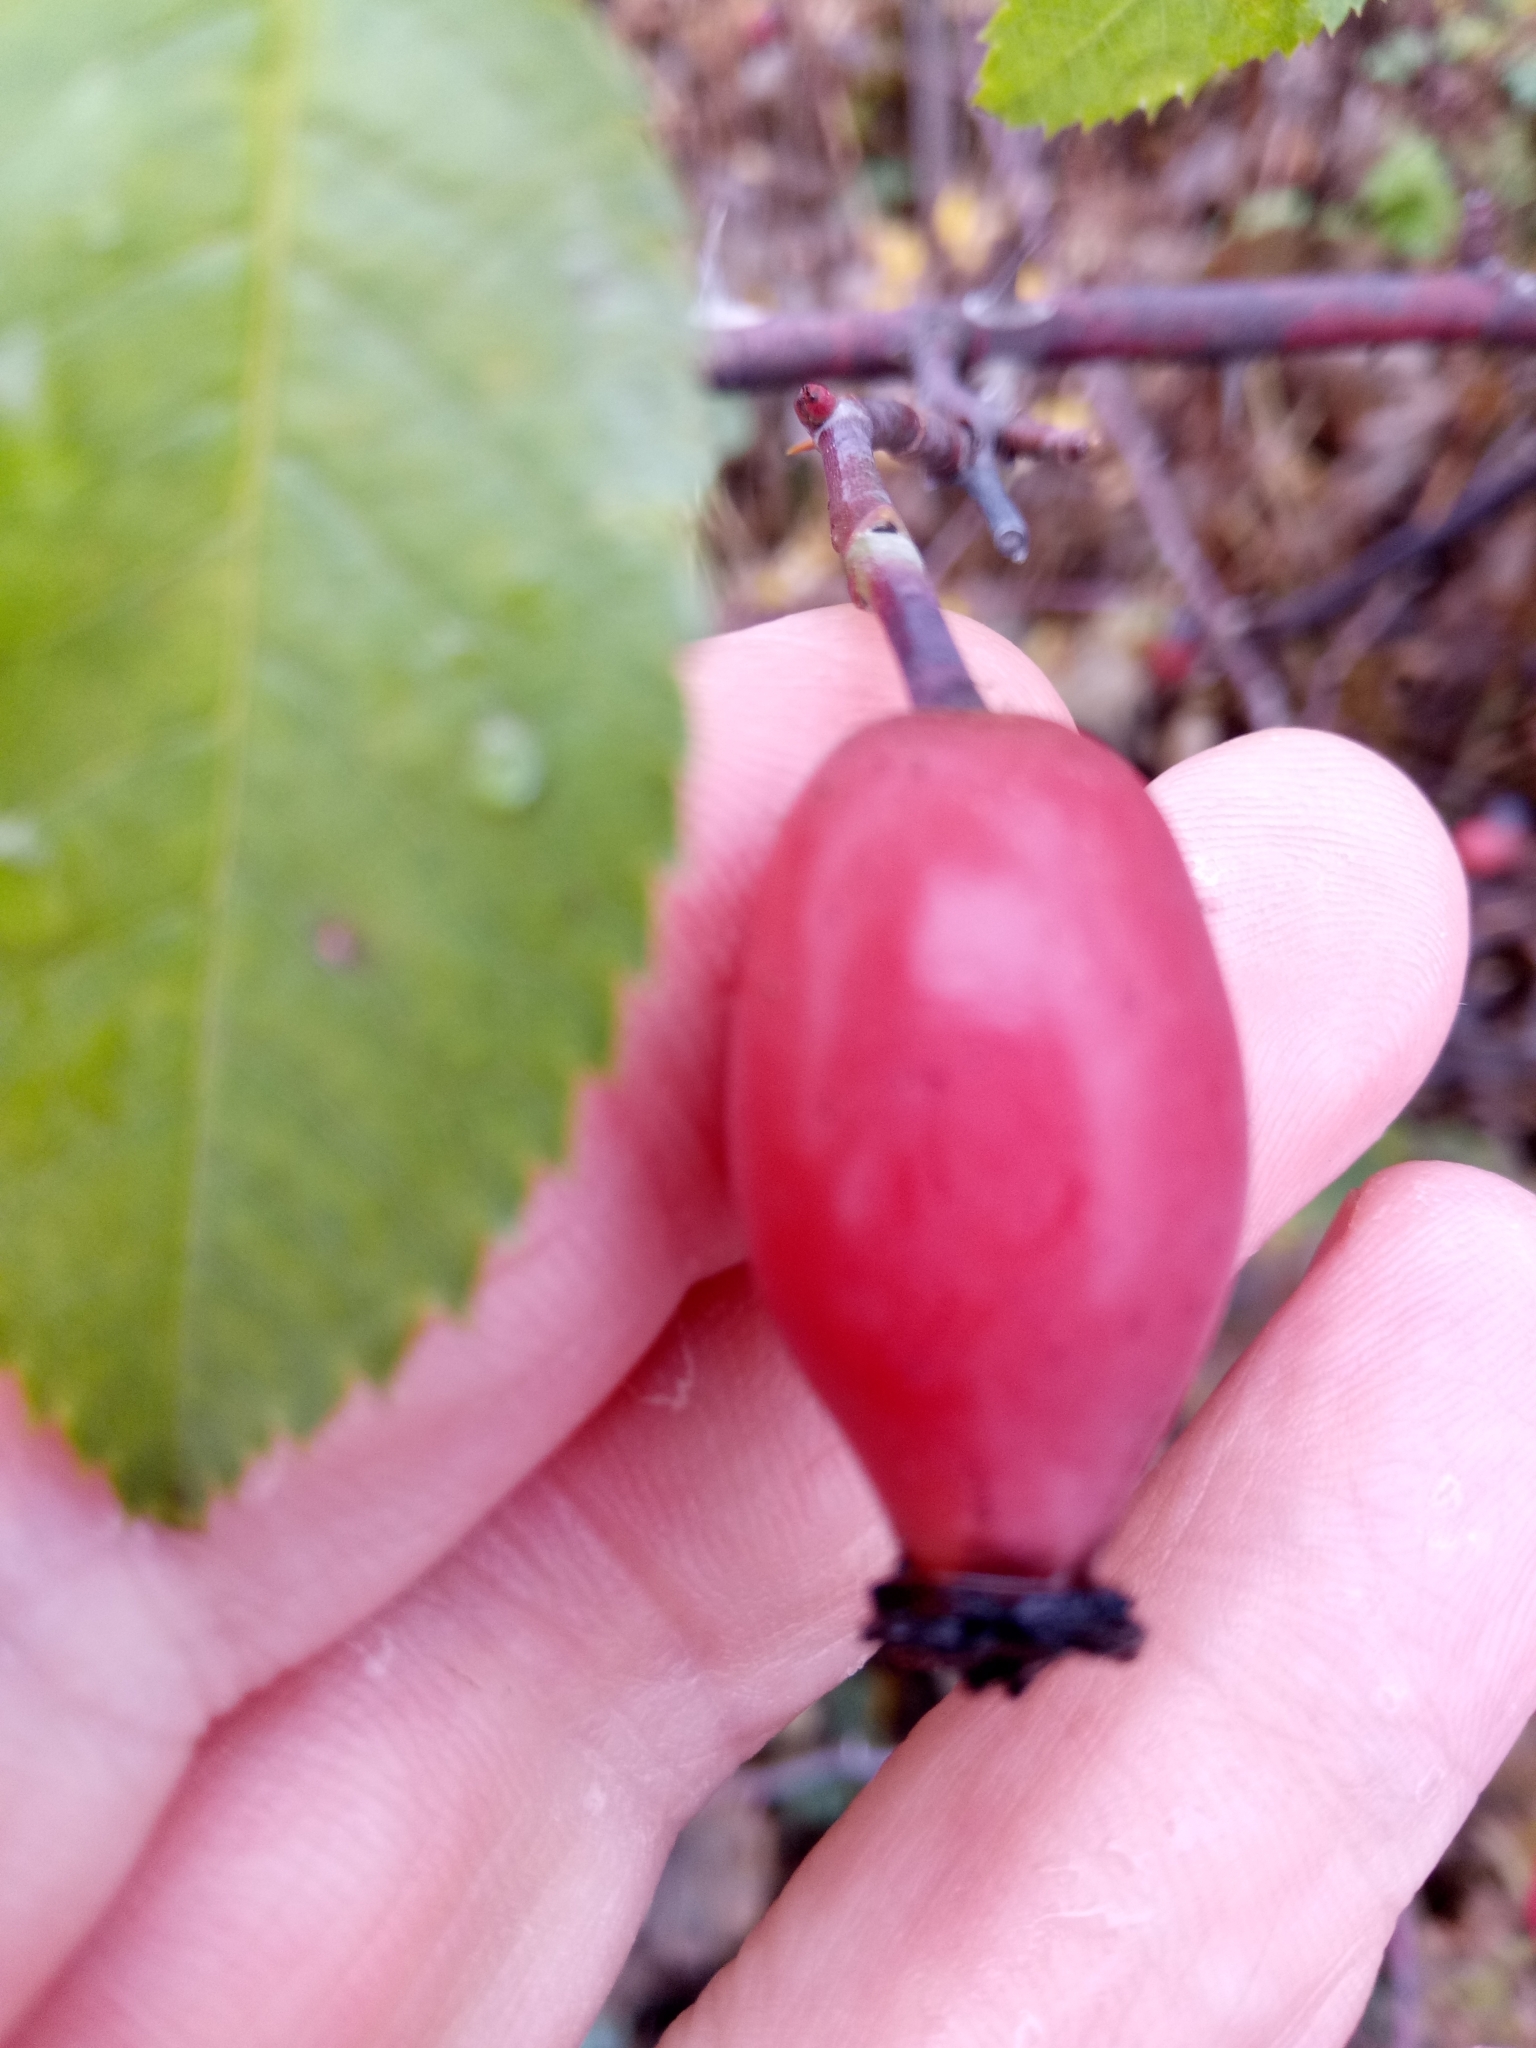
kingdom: Plantae
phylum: Tracheophyta
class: Magnoliopsida
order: Rosales
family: Rosaceae
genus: Rosa
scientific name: Rosa canina
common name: Dog rose
